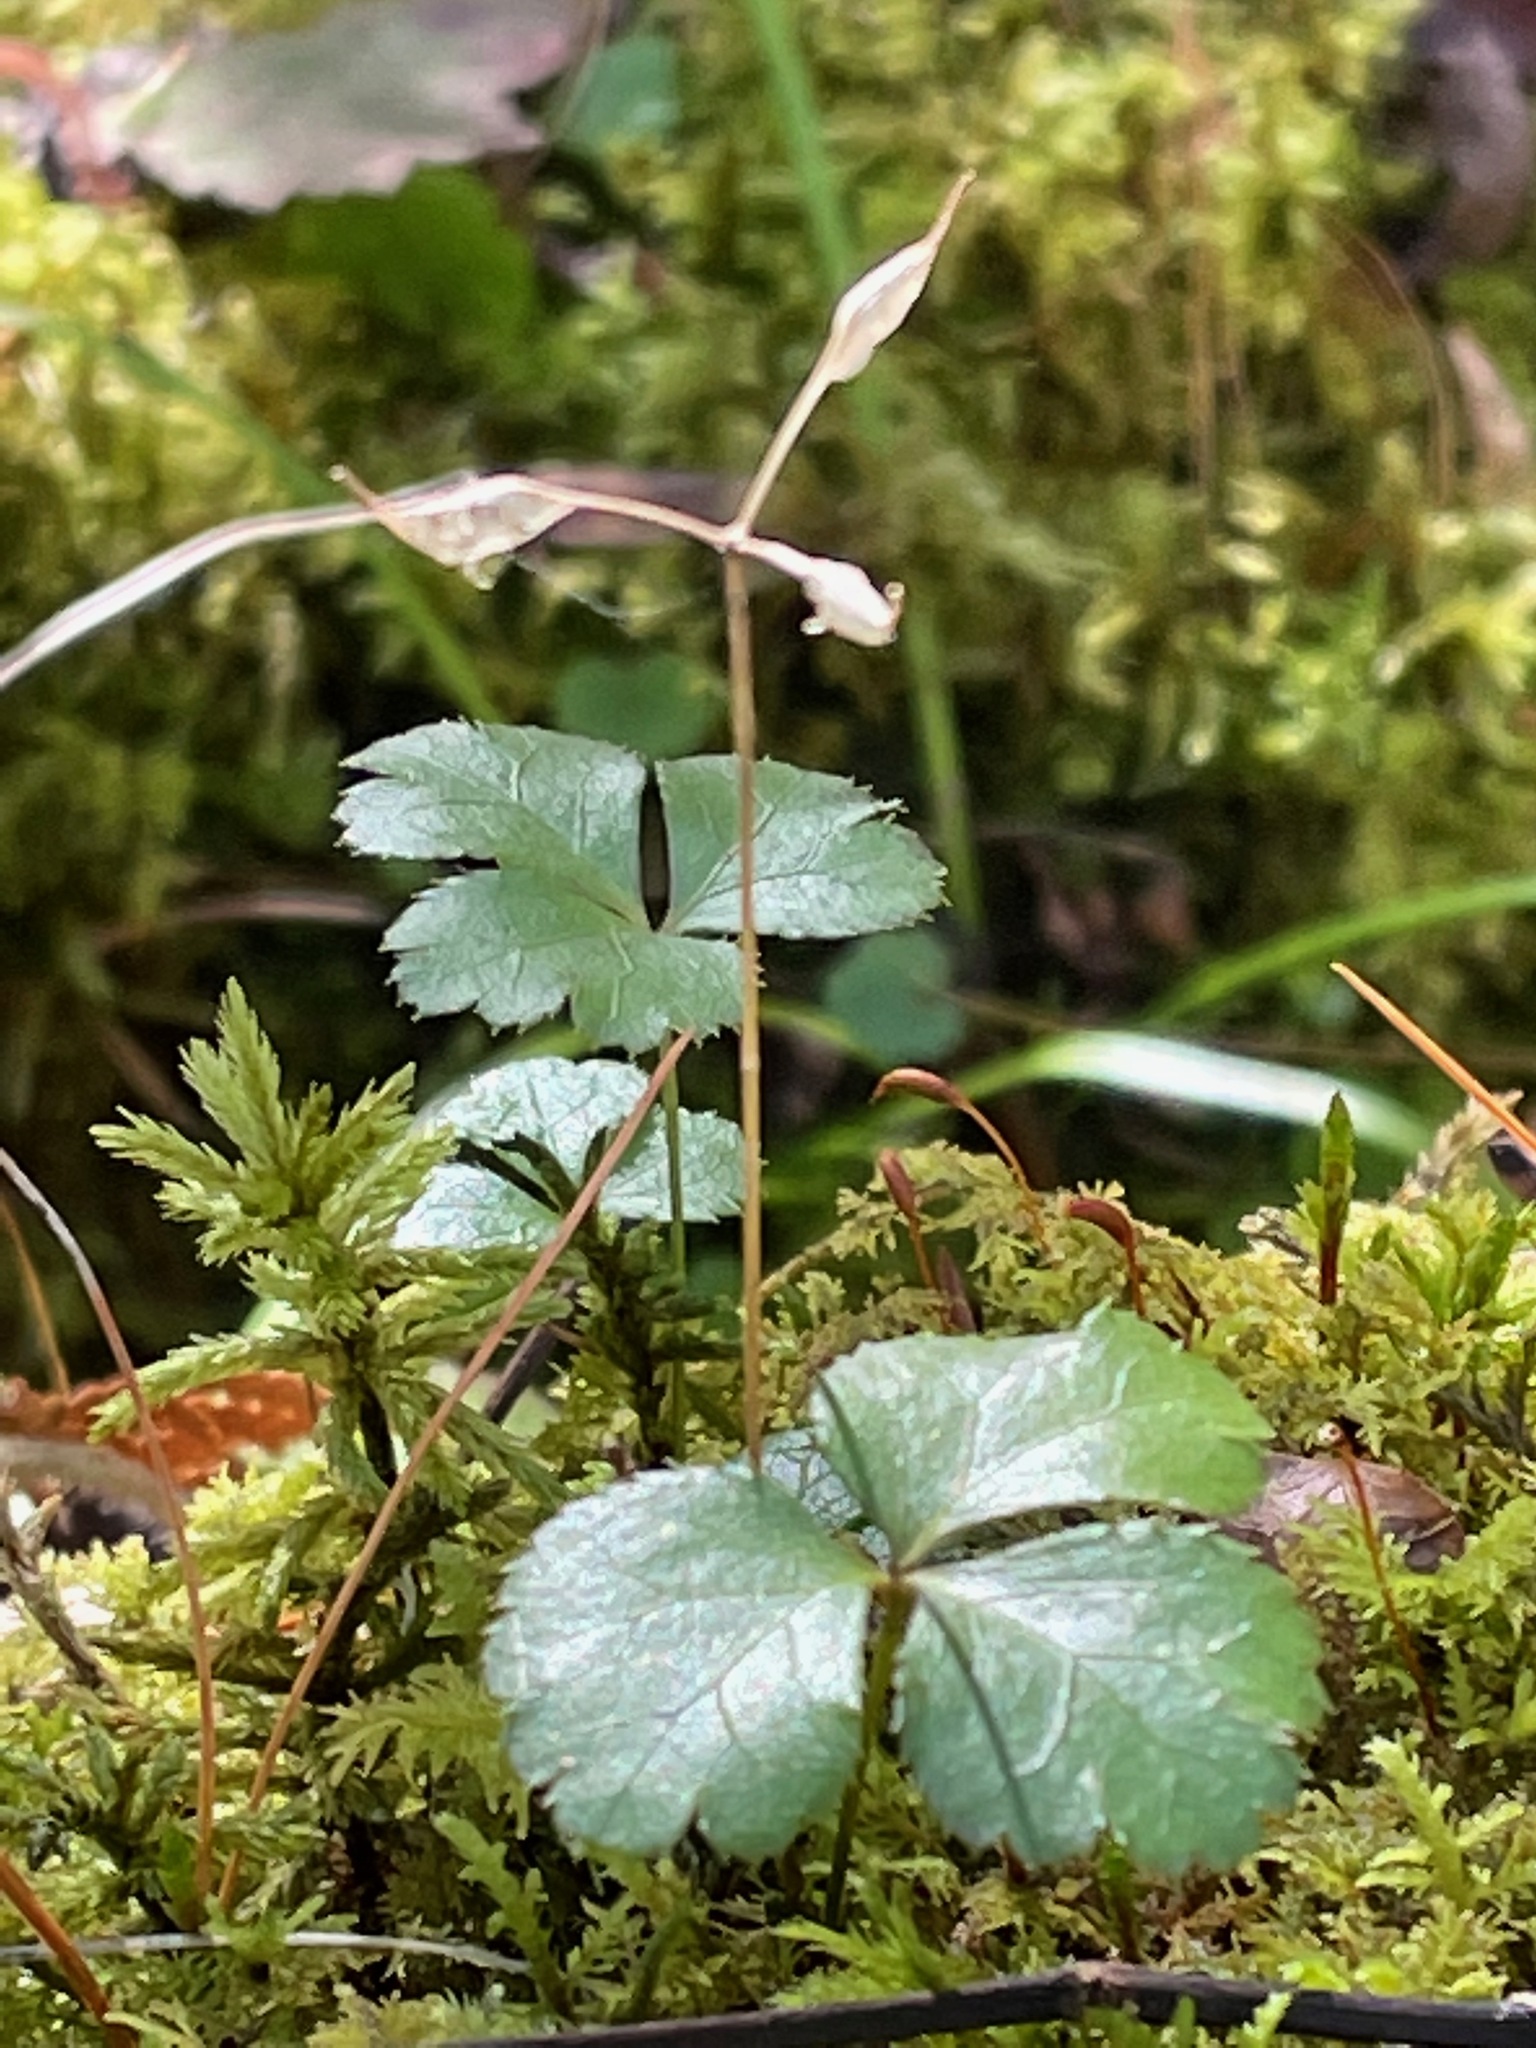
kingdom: Plantae
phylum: Tracheophyta
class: Magnoliopsida
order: Ranunculales
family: Ranunculaceae
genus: Coptis
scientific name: Coptis trifolia
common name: Canker-root
